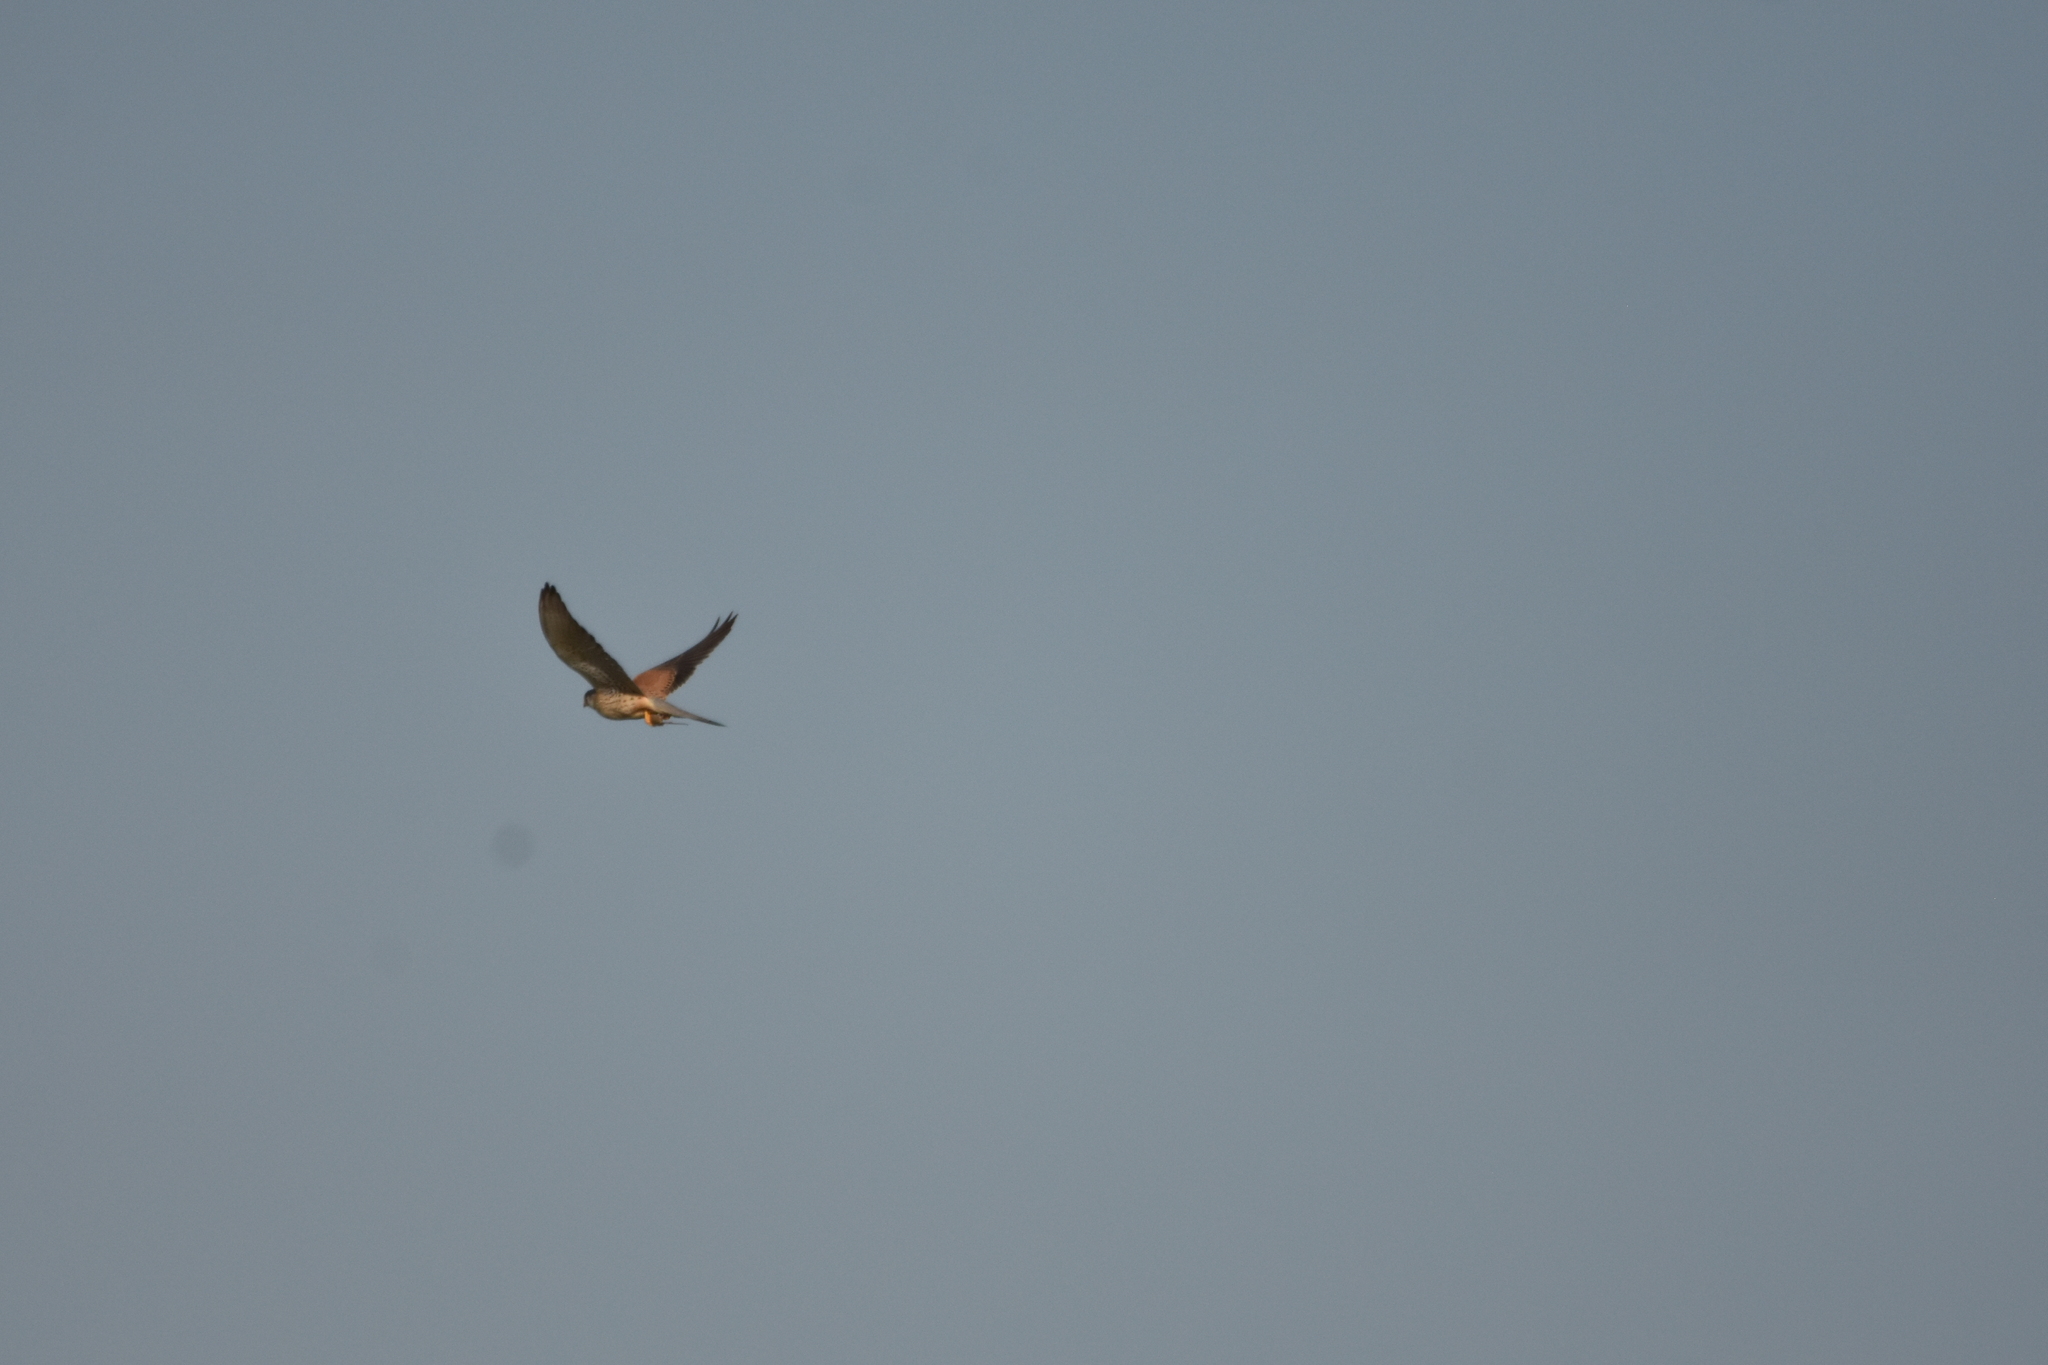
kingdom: Animalia
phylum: Chordata
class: Aves
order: Falconiformes
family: Falconidae
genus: Falco
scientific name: Falco tinnunculus
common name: Common kestrel
